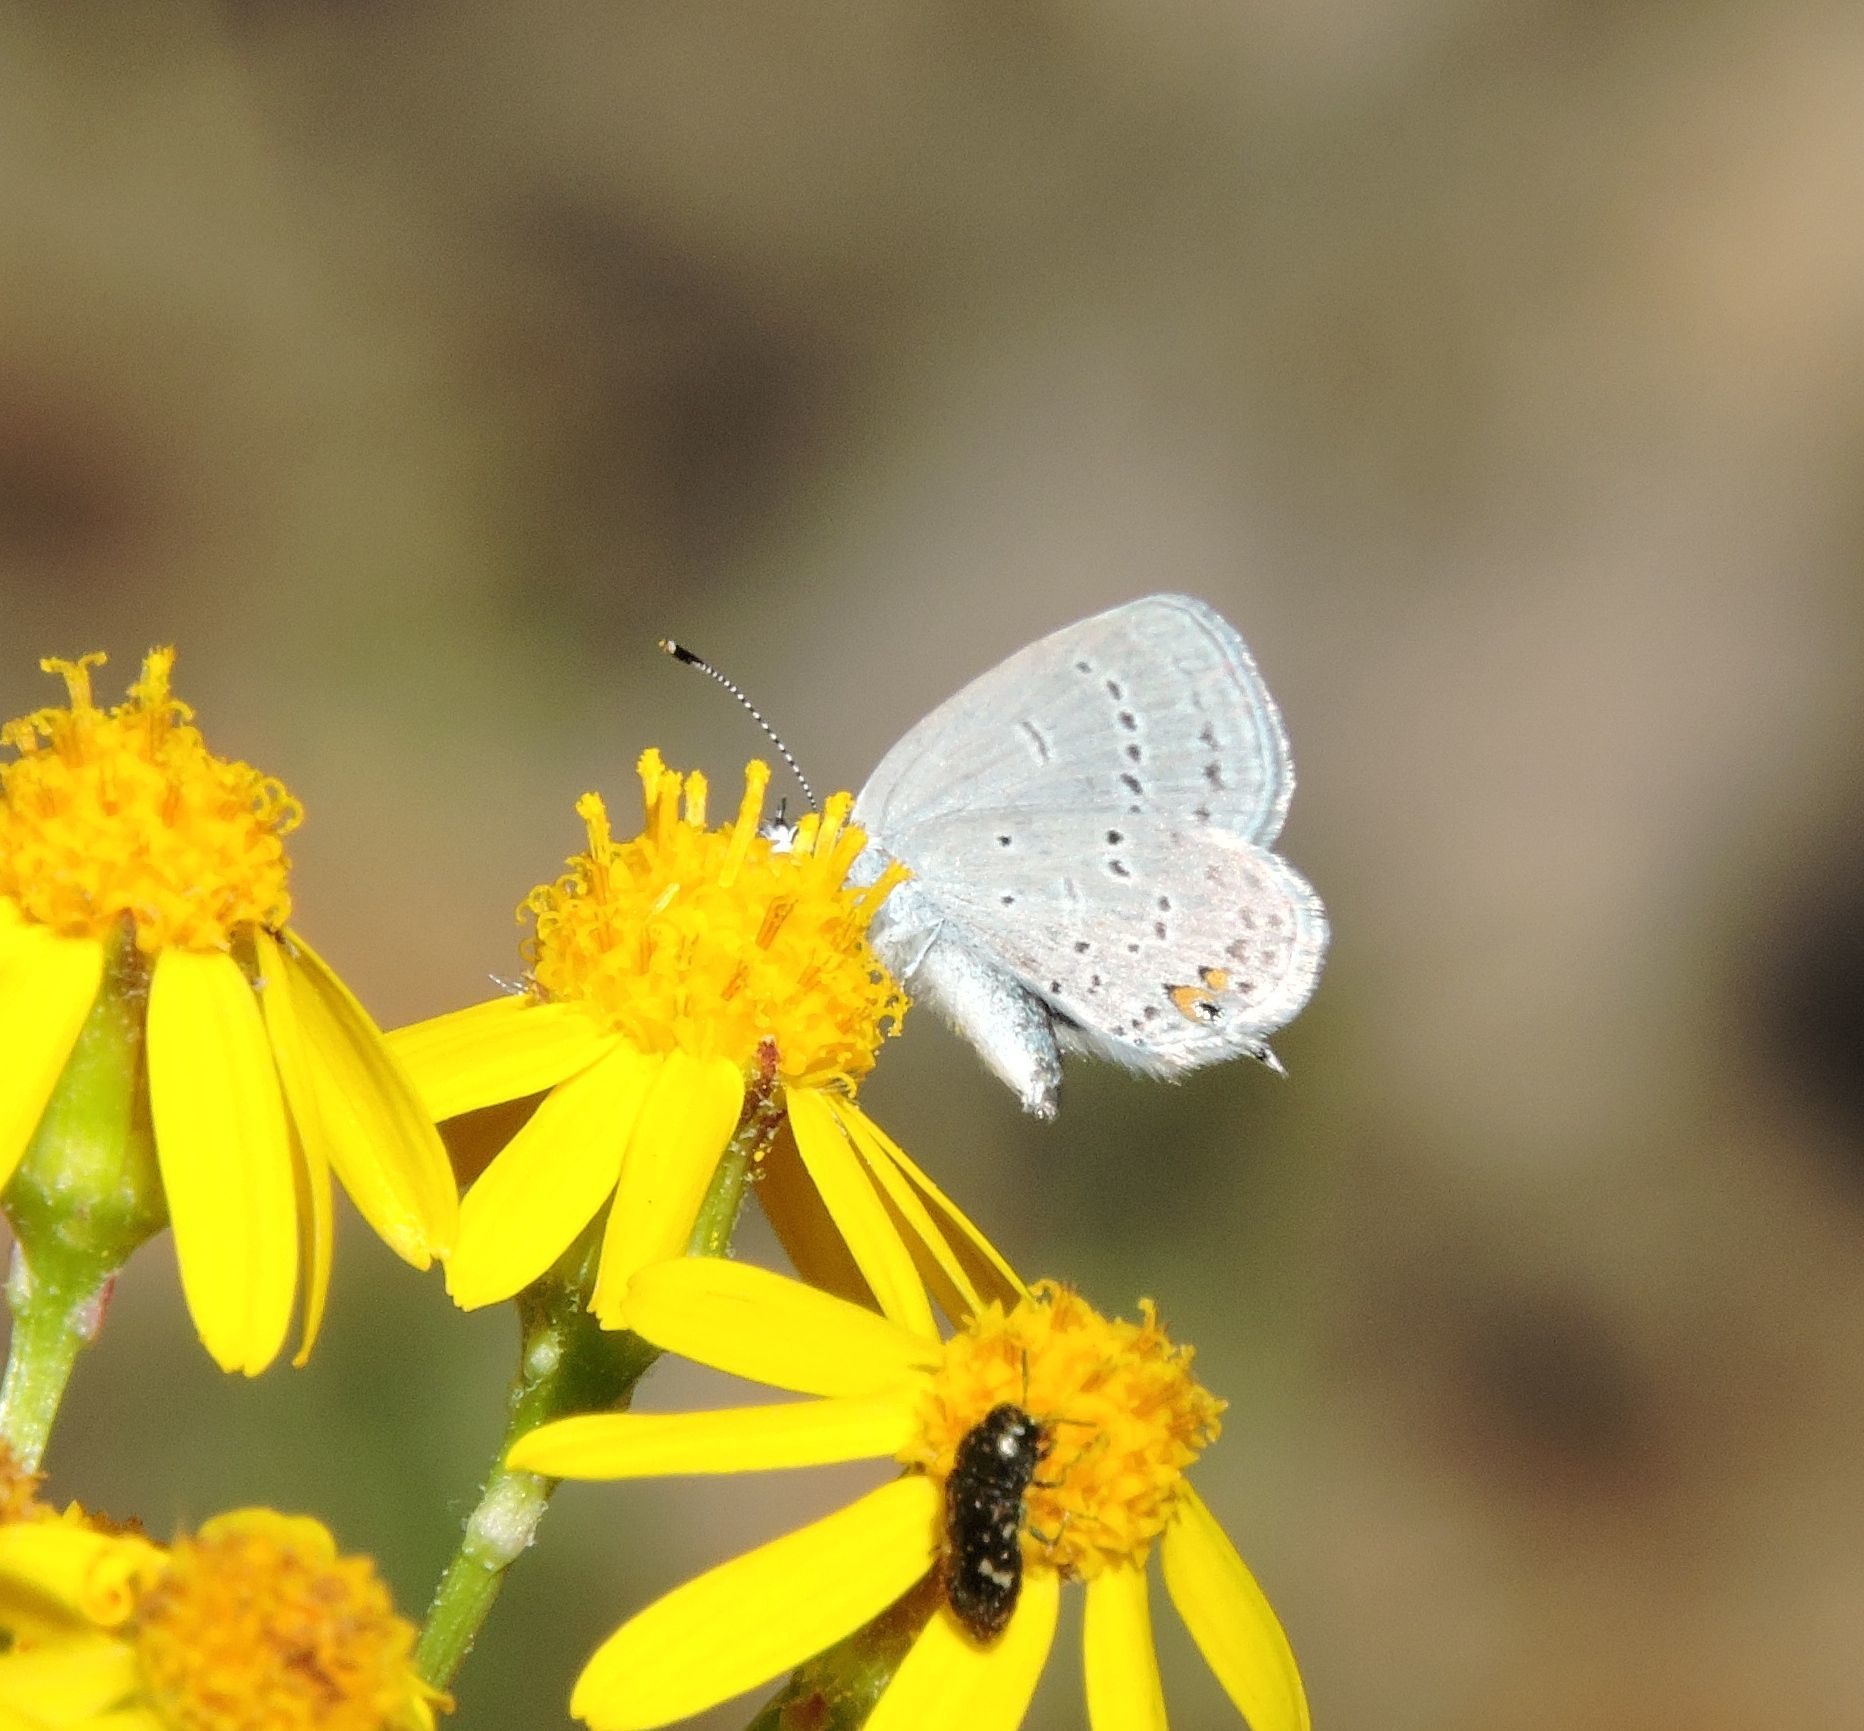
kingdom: Animalia
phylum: Arthropoda
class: Insecta
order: Lepidoptera
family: Lycaenidae
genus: Elkalyce
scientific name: Elkalyce comyntas
